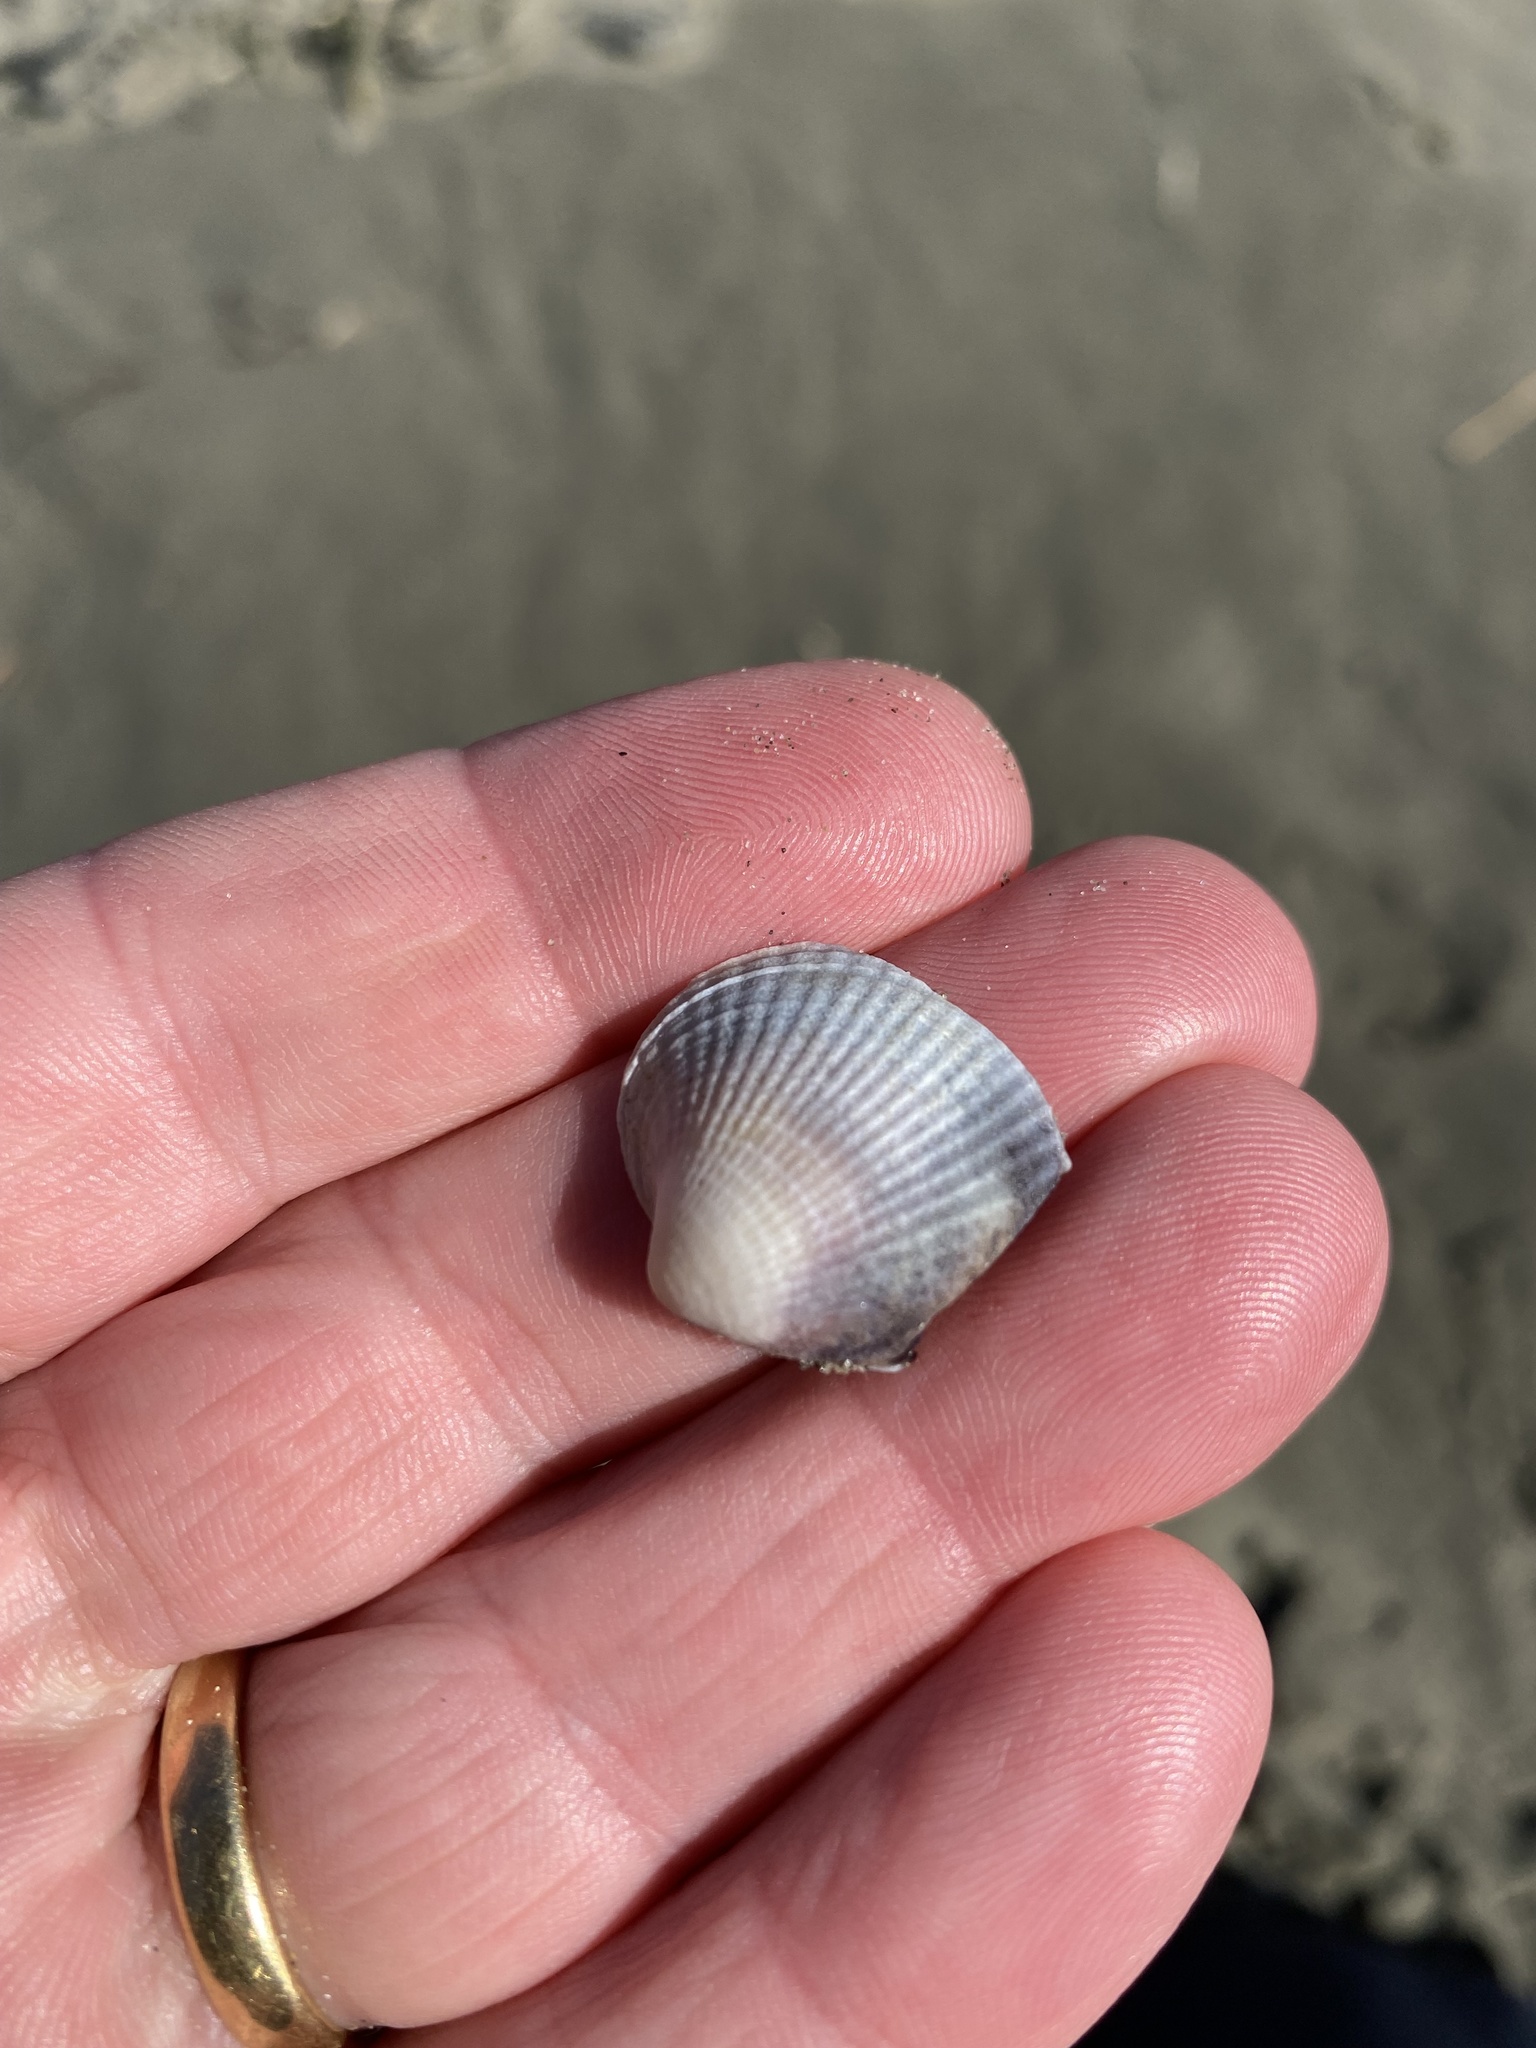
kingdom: Animalia
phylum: Mollusca
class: Bivalvia
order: Venerida
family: Veneridae
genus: Austrovenus
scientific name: Austrovenus stutchburyi
